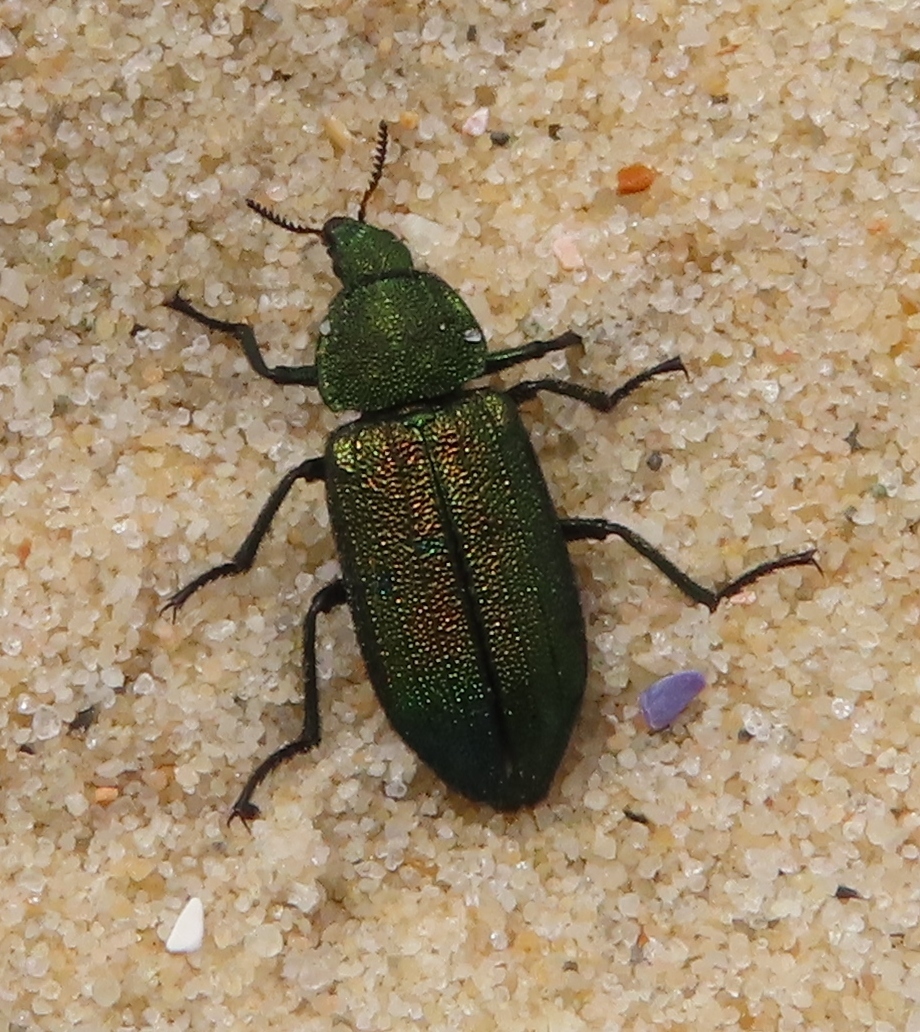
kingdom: Animalia
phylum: Arthropoda
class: Insecta
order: Coleoptera
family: Melyridae
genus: Melyris
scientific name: Melyris viridis
